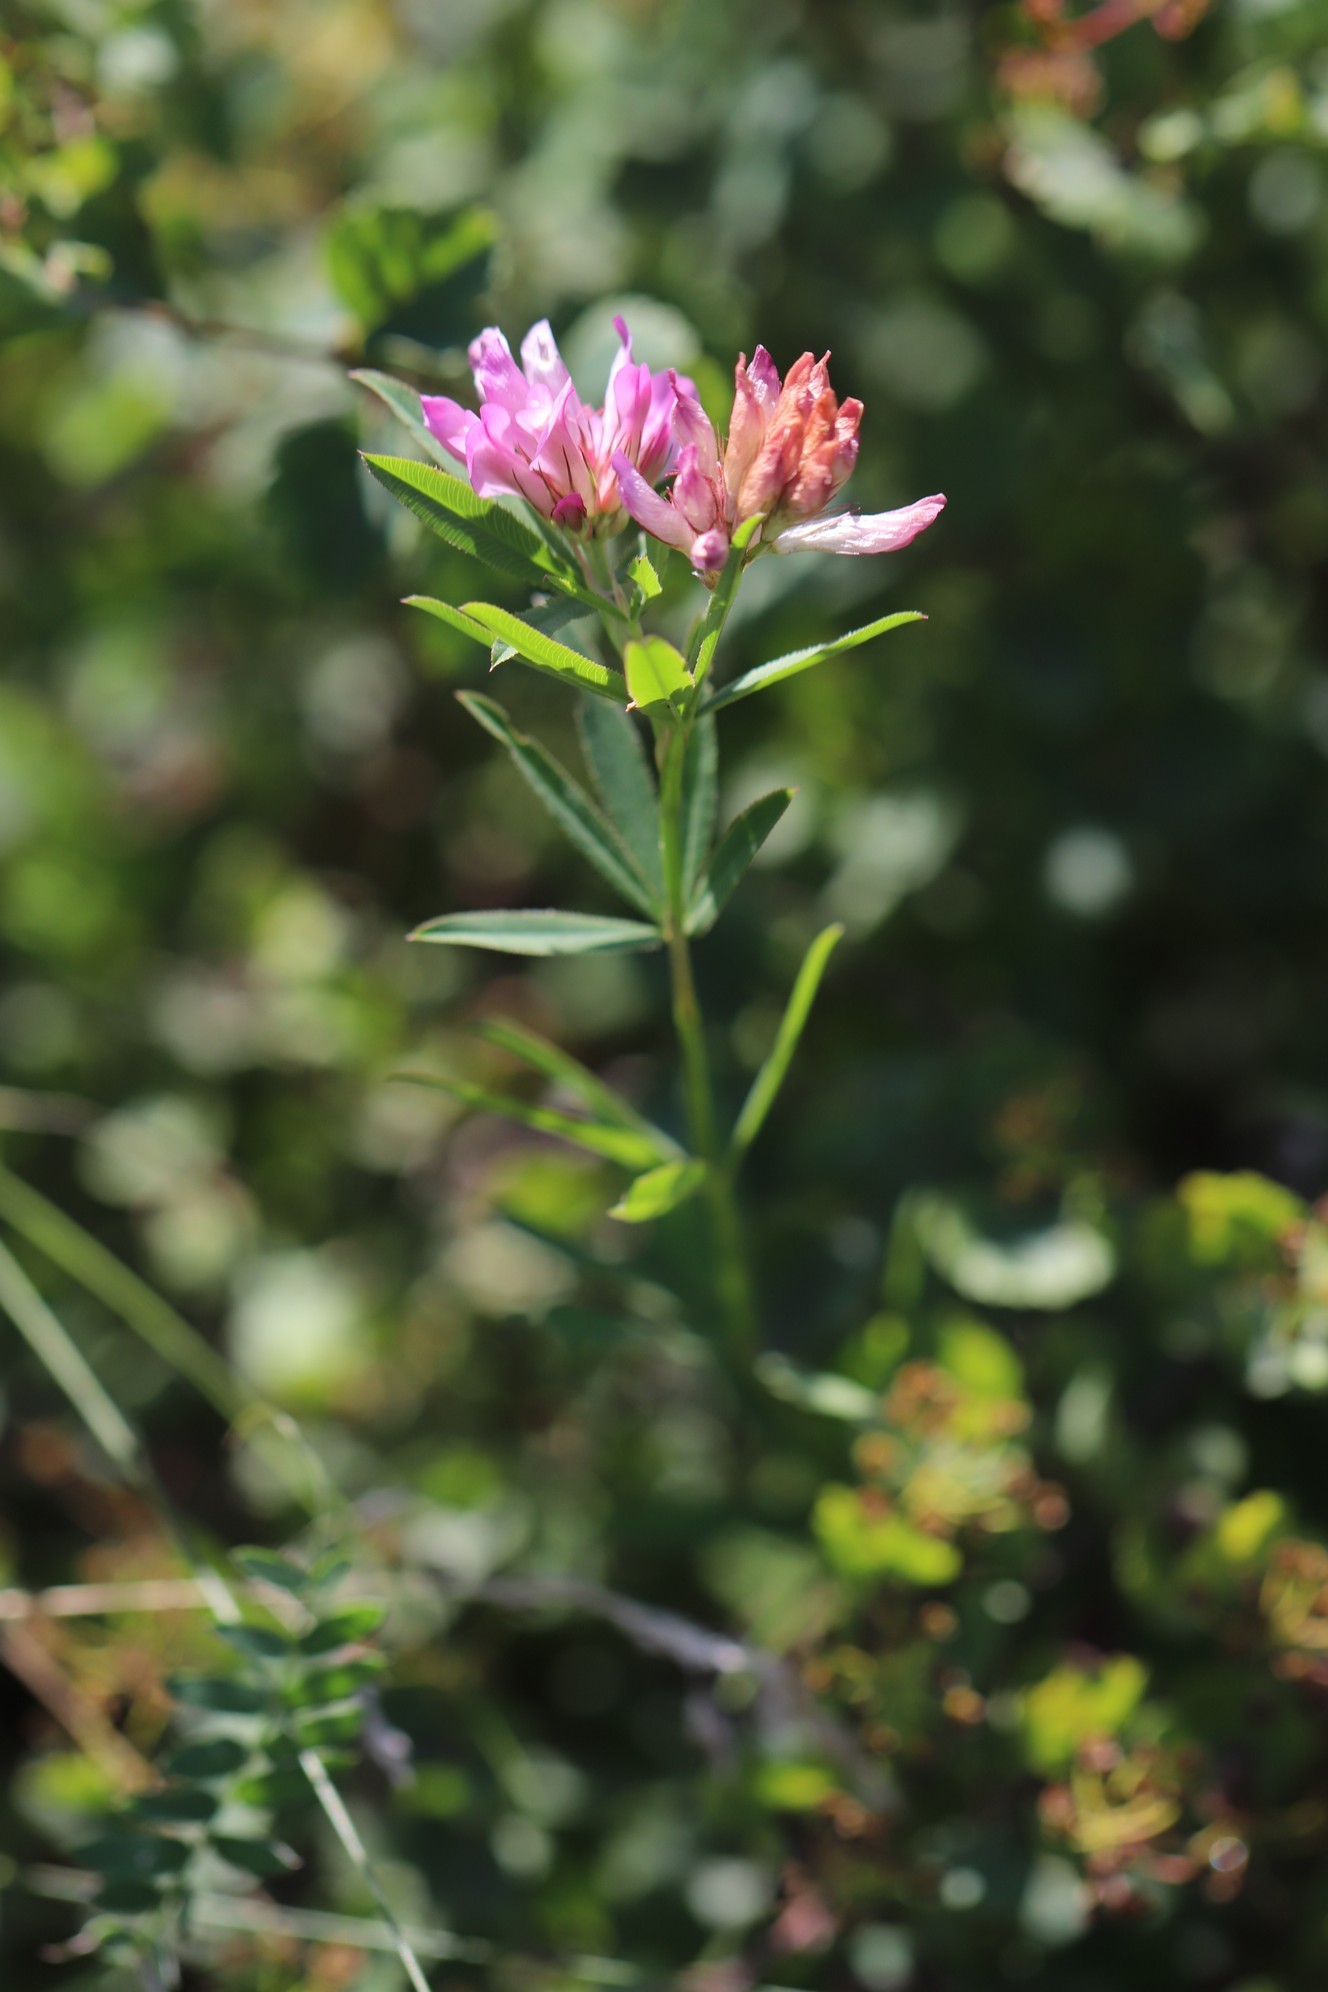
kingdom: Plantae
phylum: Tracheophyta
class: Magnoliopsida
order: Fabales
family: Fabaceae
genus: Trifolium
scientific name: Trifolium lupinaster
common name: Lupine clover
